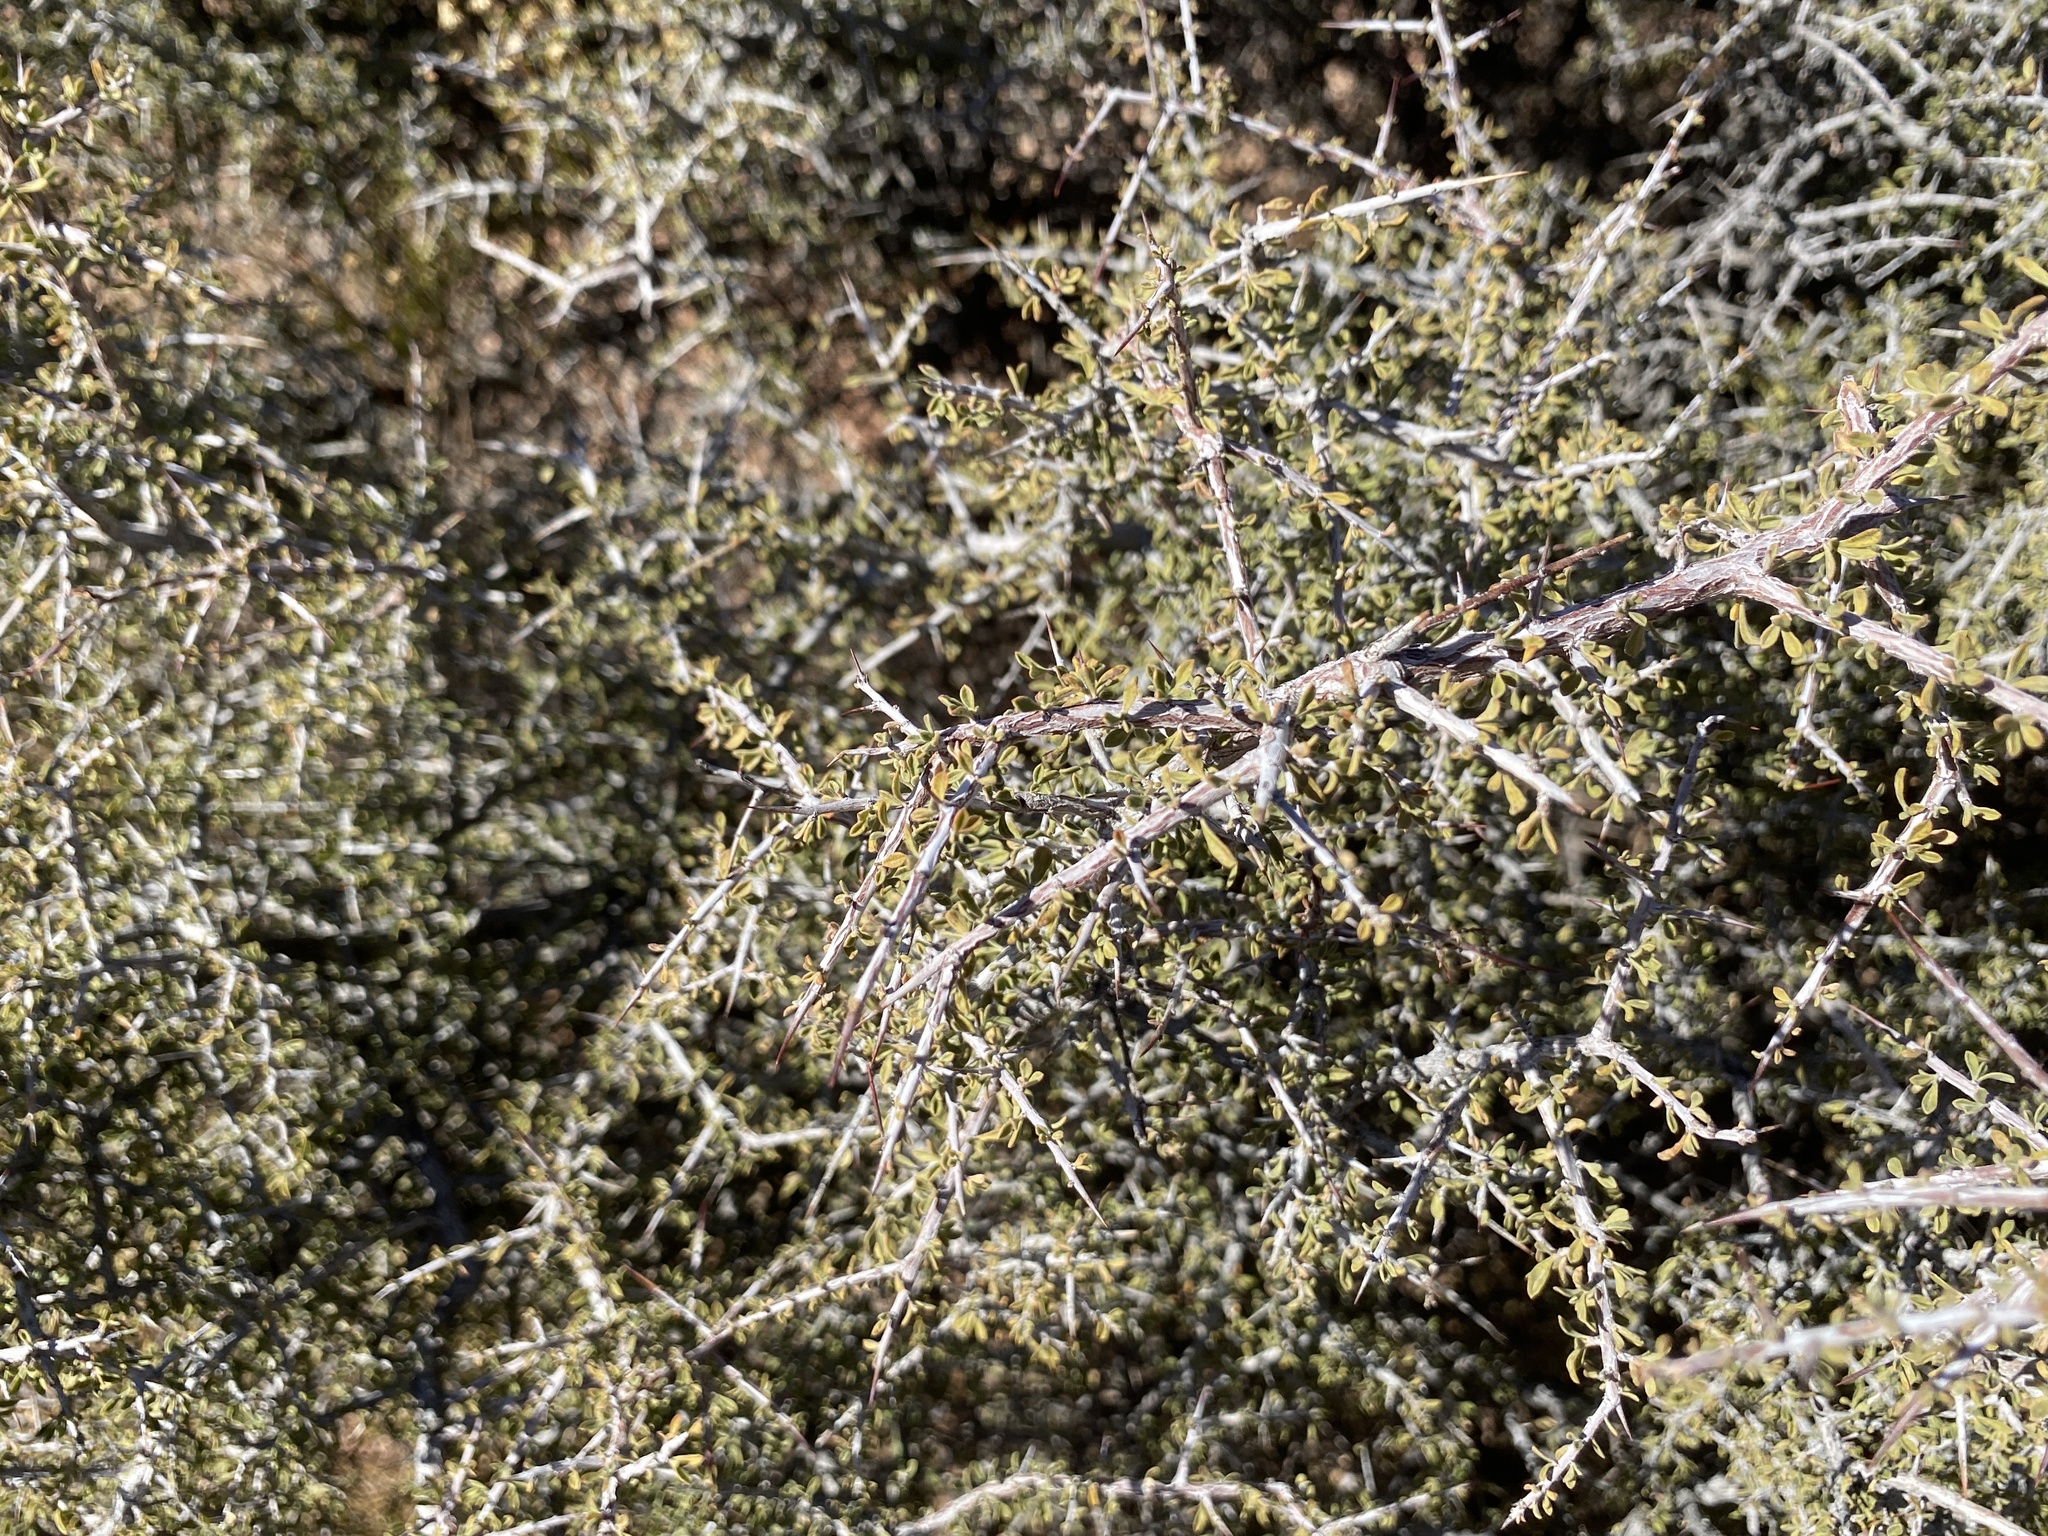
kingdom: Plantae
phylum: Tracheophyta
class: Magnoliopsida
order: Rosales
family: Rhamnaceae
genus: Condalia
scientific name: Condalia warnockii
